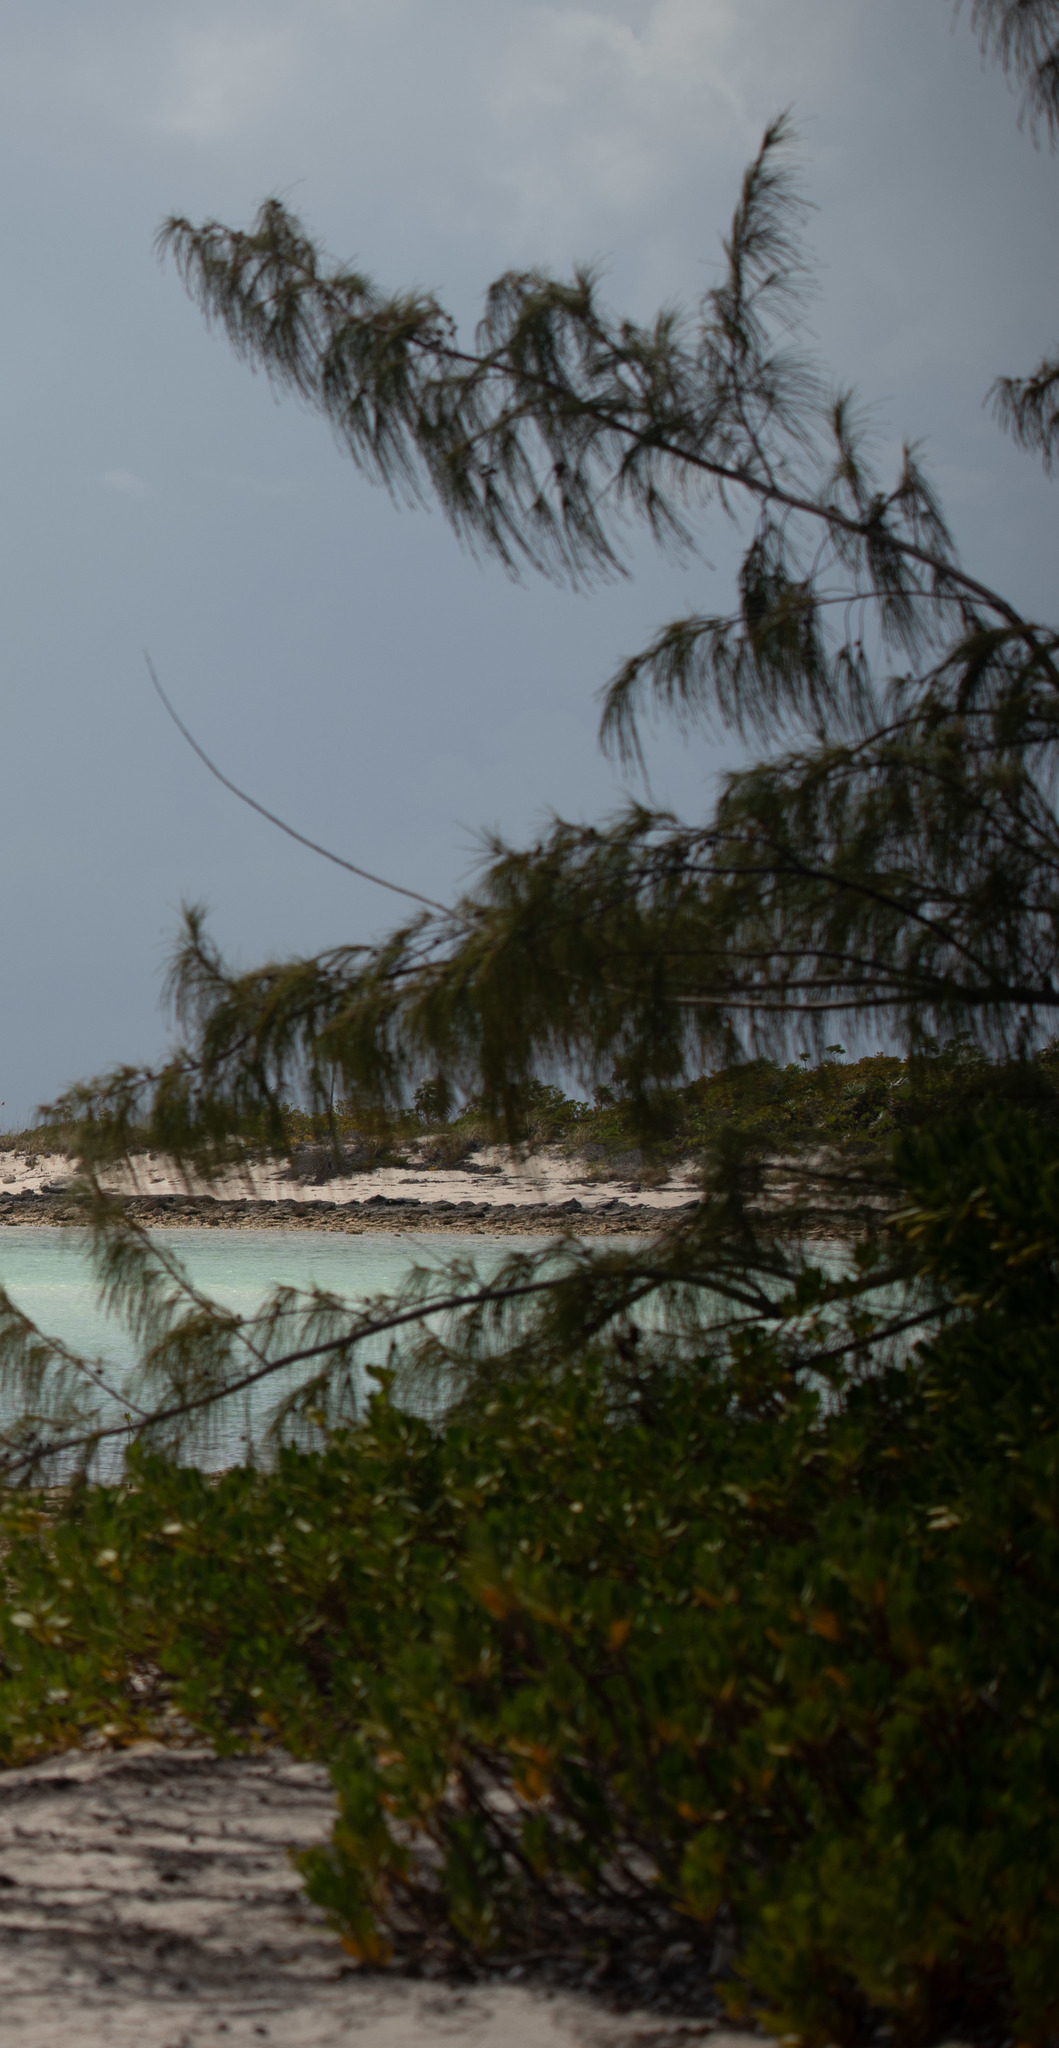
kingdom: Plantae
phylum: Tracheophyta
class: Magnoliopsida
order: Fagales
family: Casuarinaceae
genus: Casuarina
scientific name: Casuarina equisetifolia
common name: Beach sheoak
